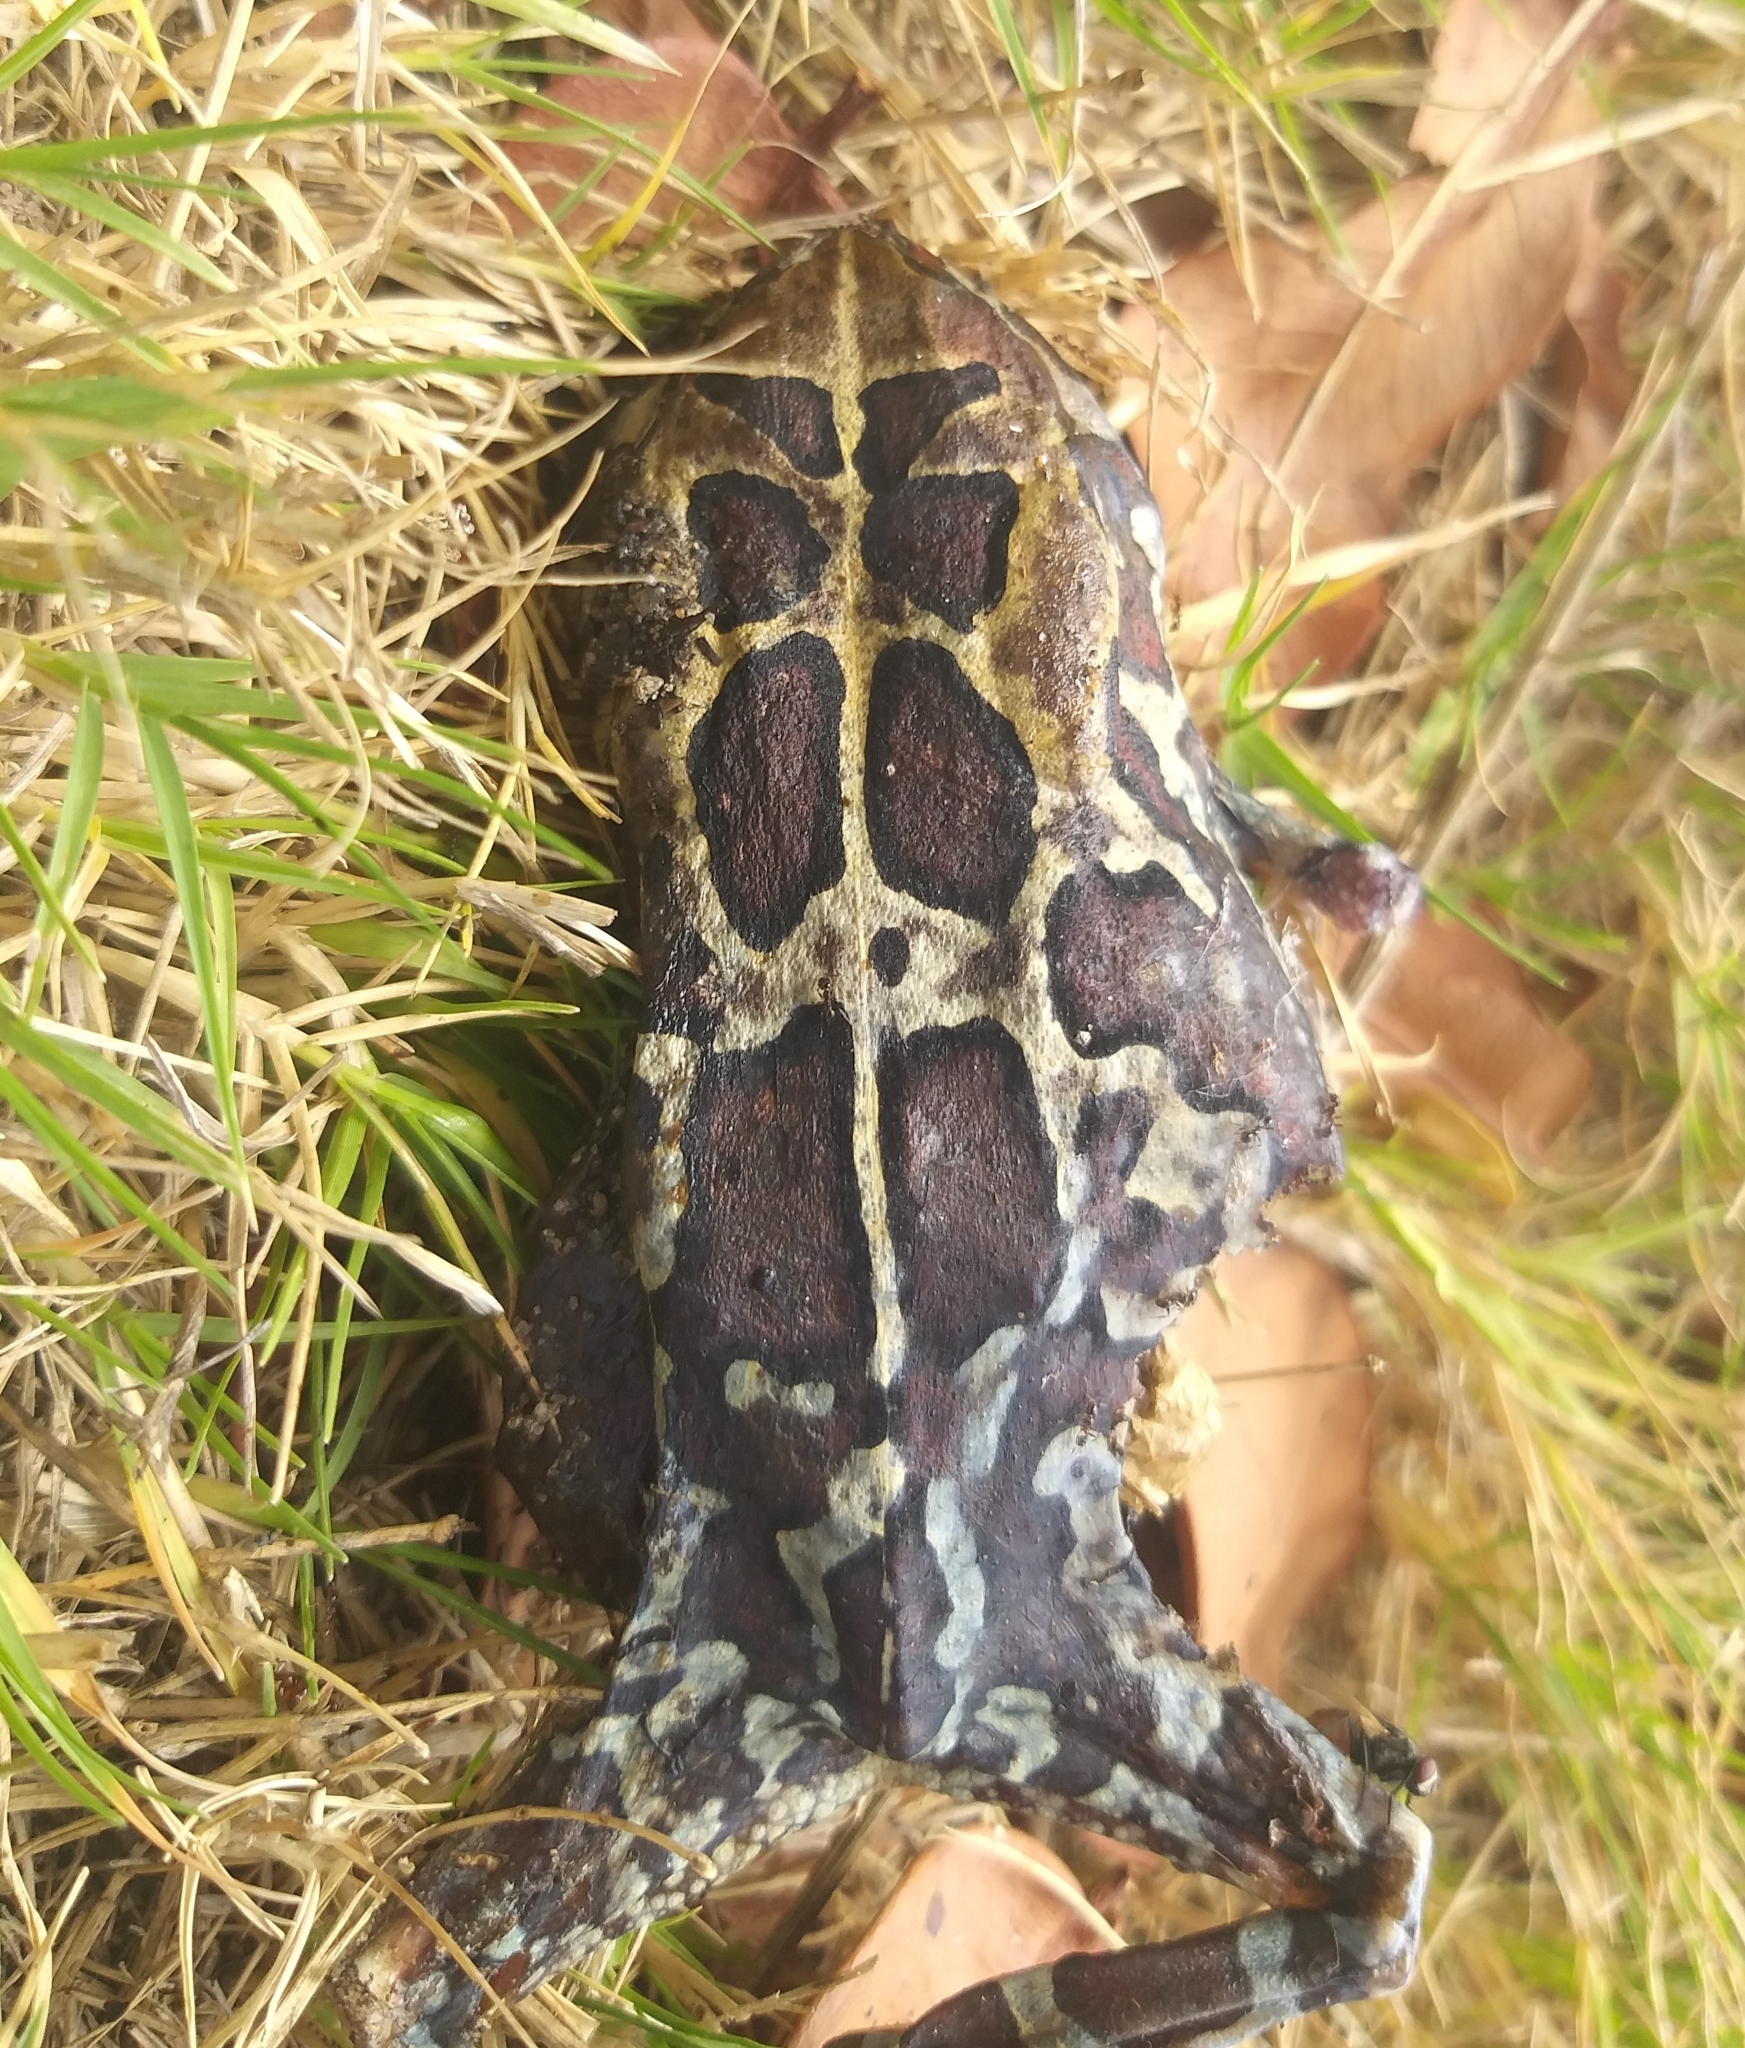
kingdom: Animalia
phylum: Chordata
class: Amphibia
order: Anura
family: Bufonidae
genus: Sclerophrys
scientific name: Sclerophrys pantherina
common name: Panther toad
